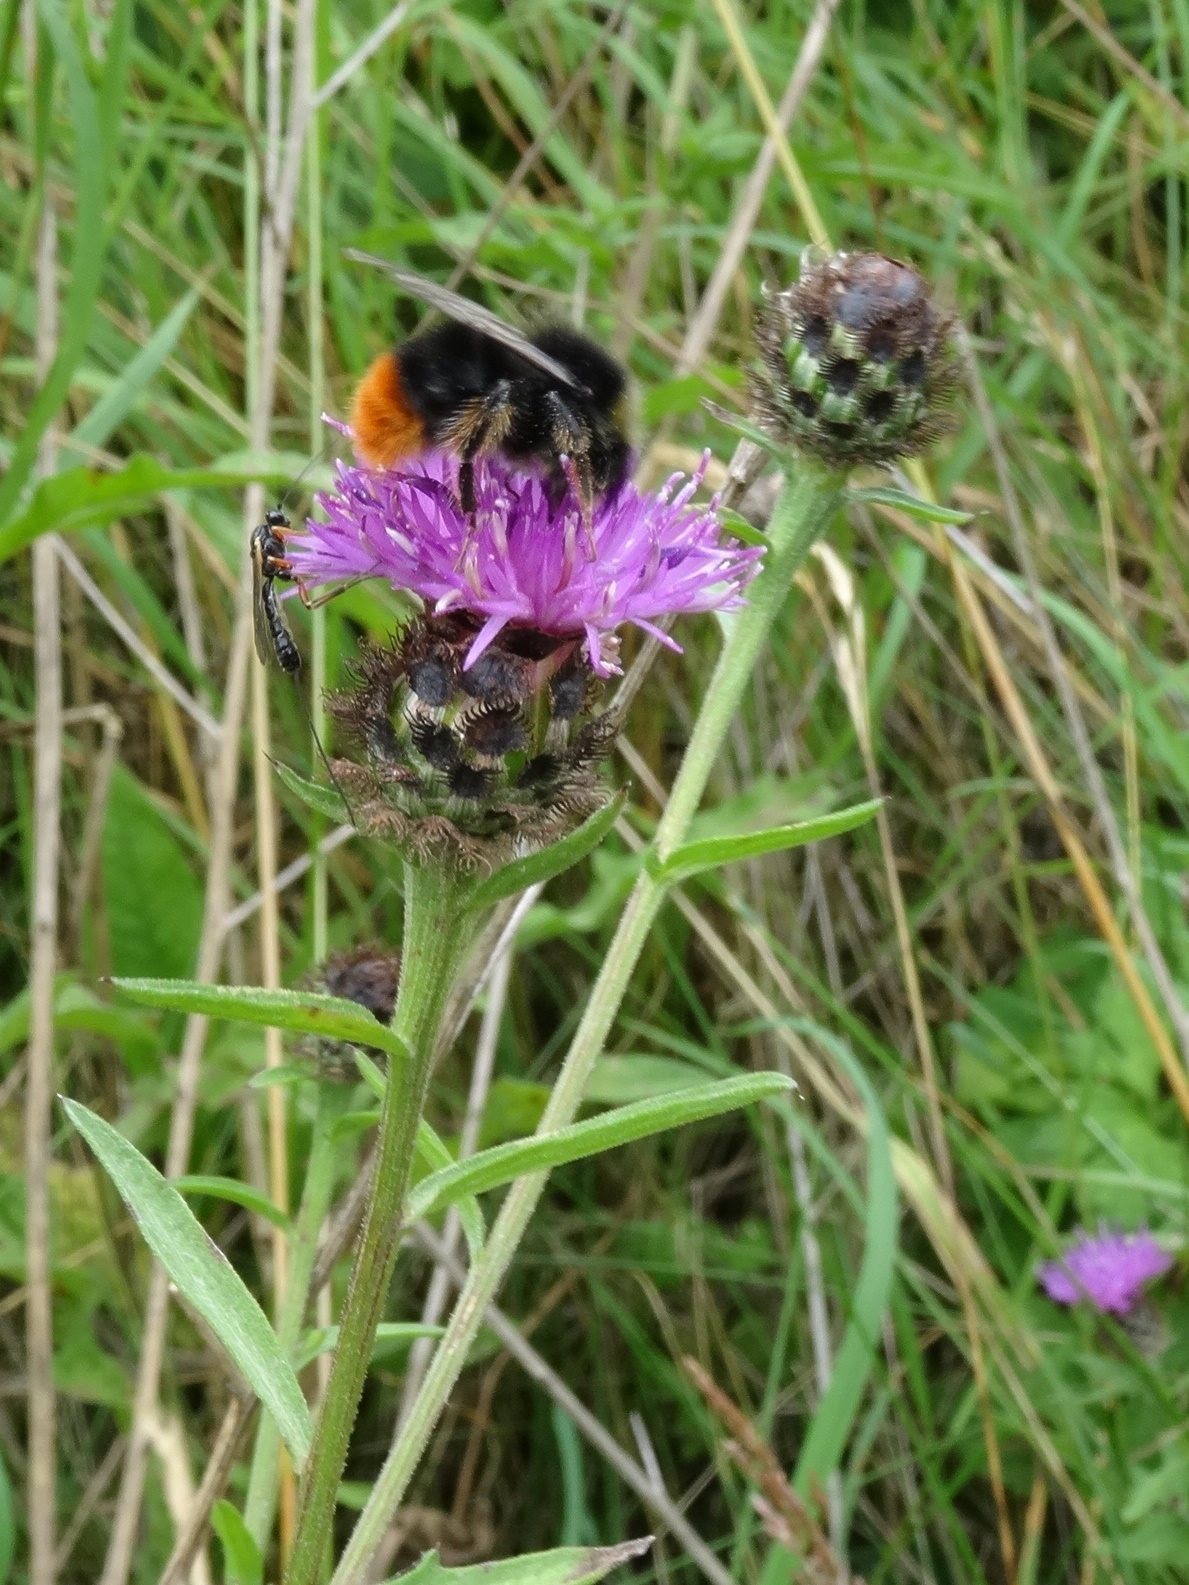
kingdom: Animalia
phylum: Arthropoda
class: Insecta
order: Hymenoptera
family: Apidae
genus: Bombus
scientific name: Bombus lapidarius
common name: Large red-tailed humble-bee
